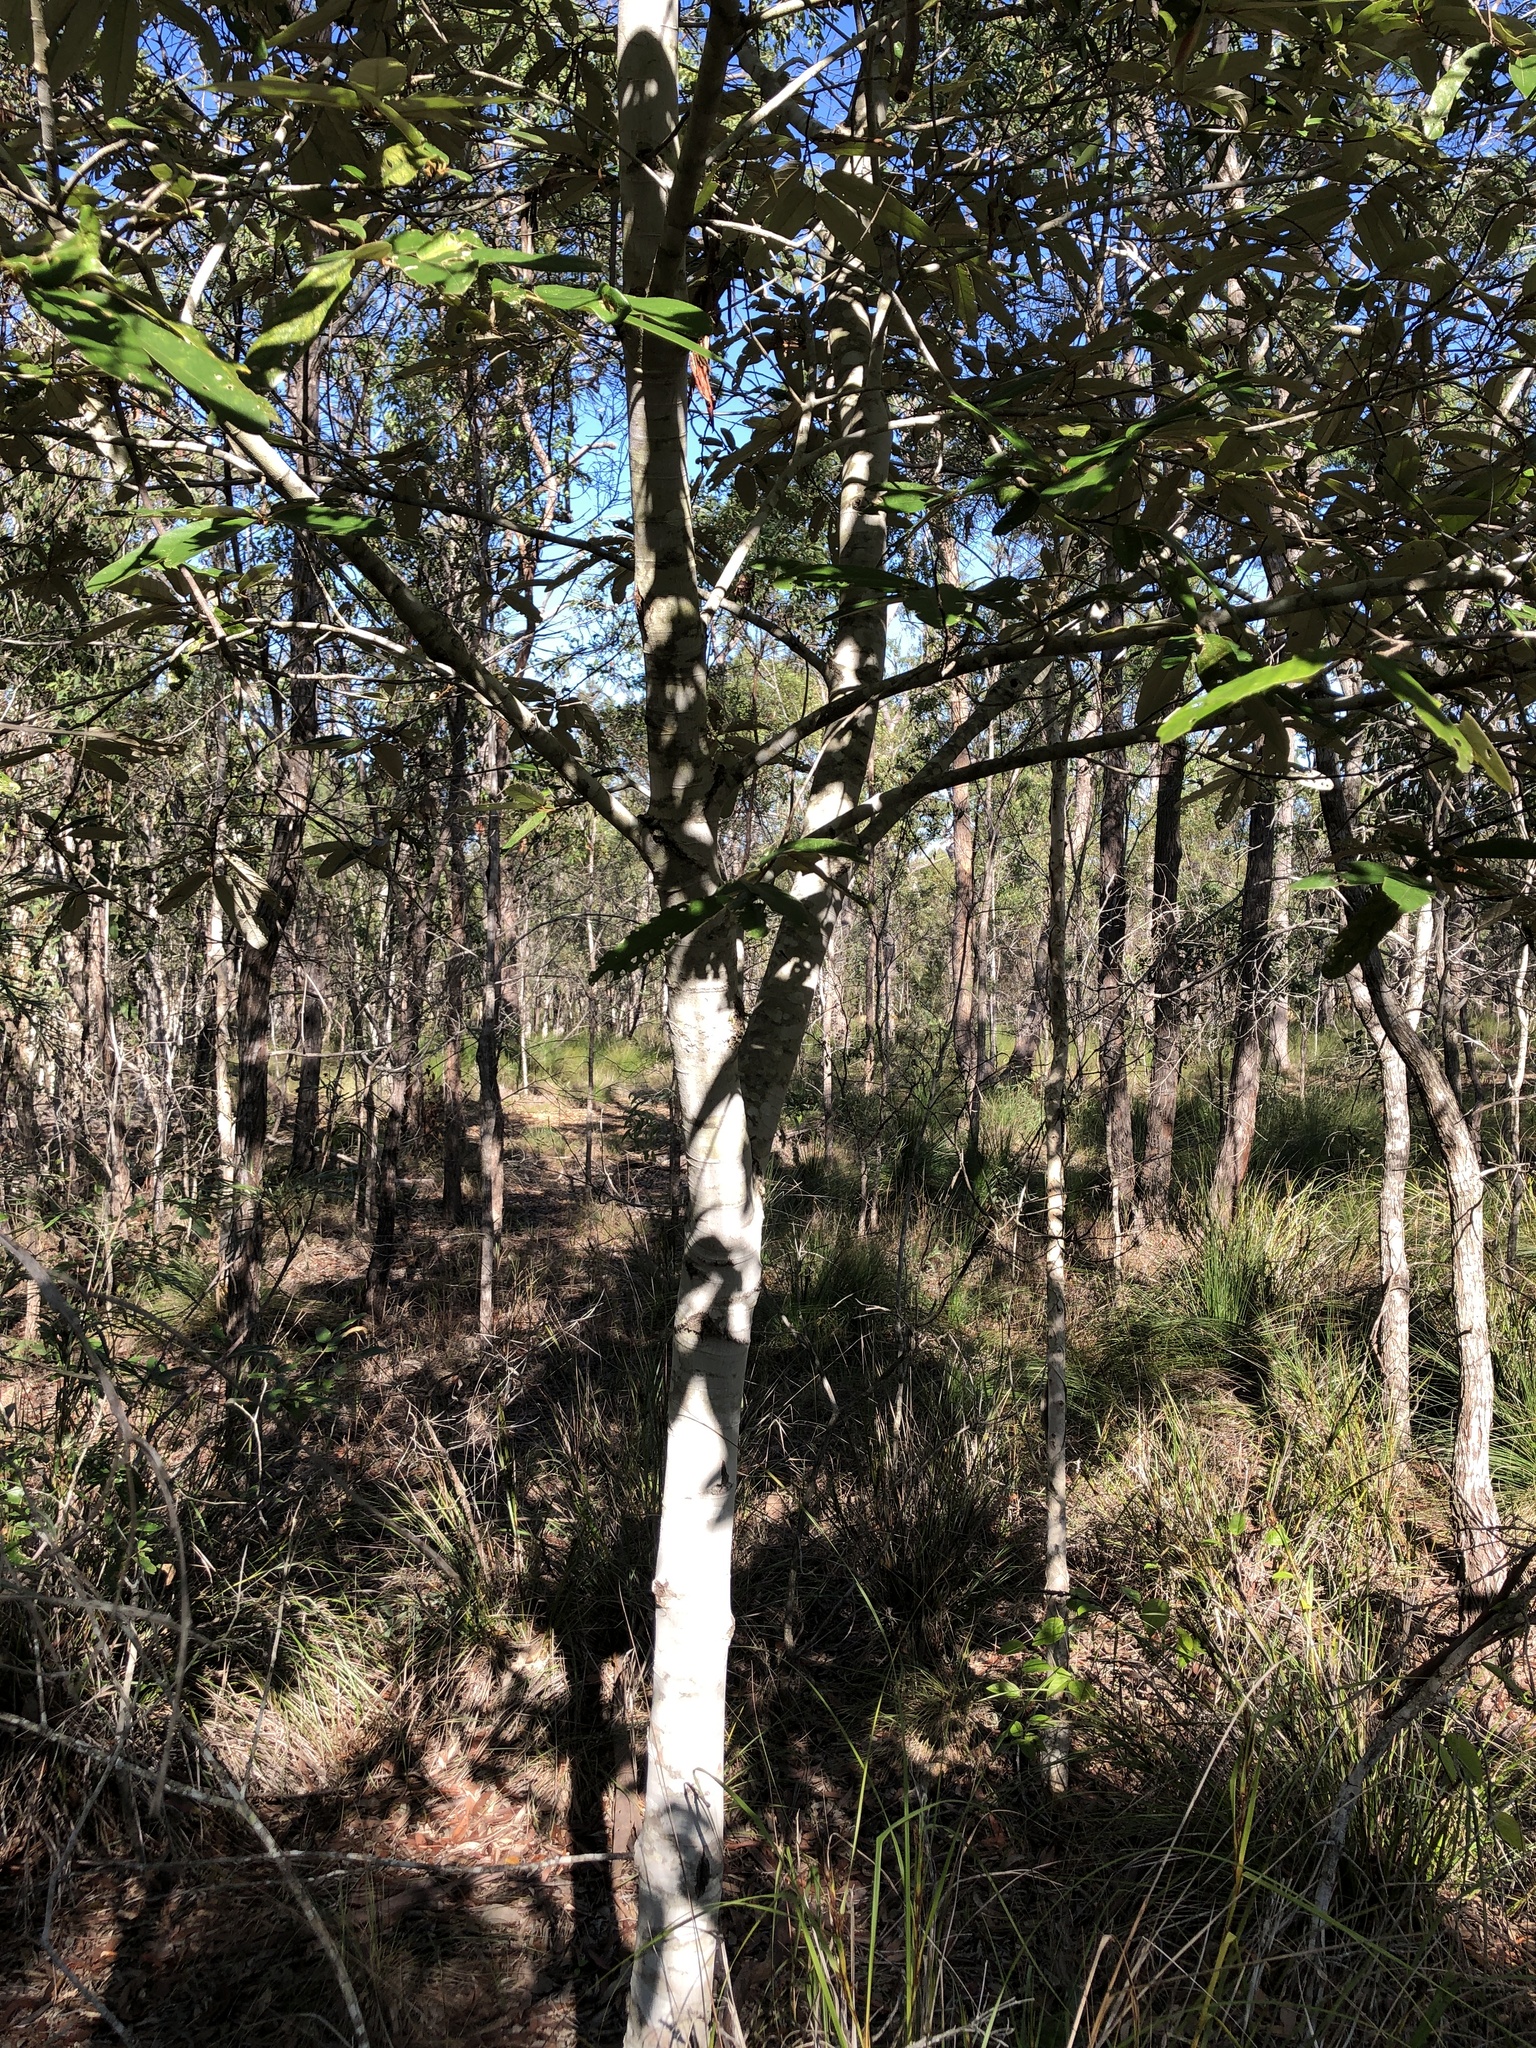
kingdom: Plantae
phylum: Tracheophyta
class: Magnoliopsida
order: Rosales
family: Rhamnaceae
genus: Alphitonia
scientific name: Alphitonia excelsa
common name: Red ash
